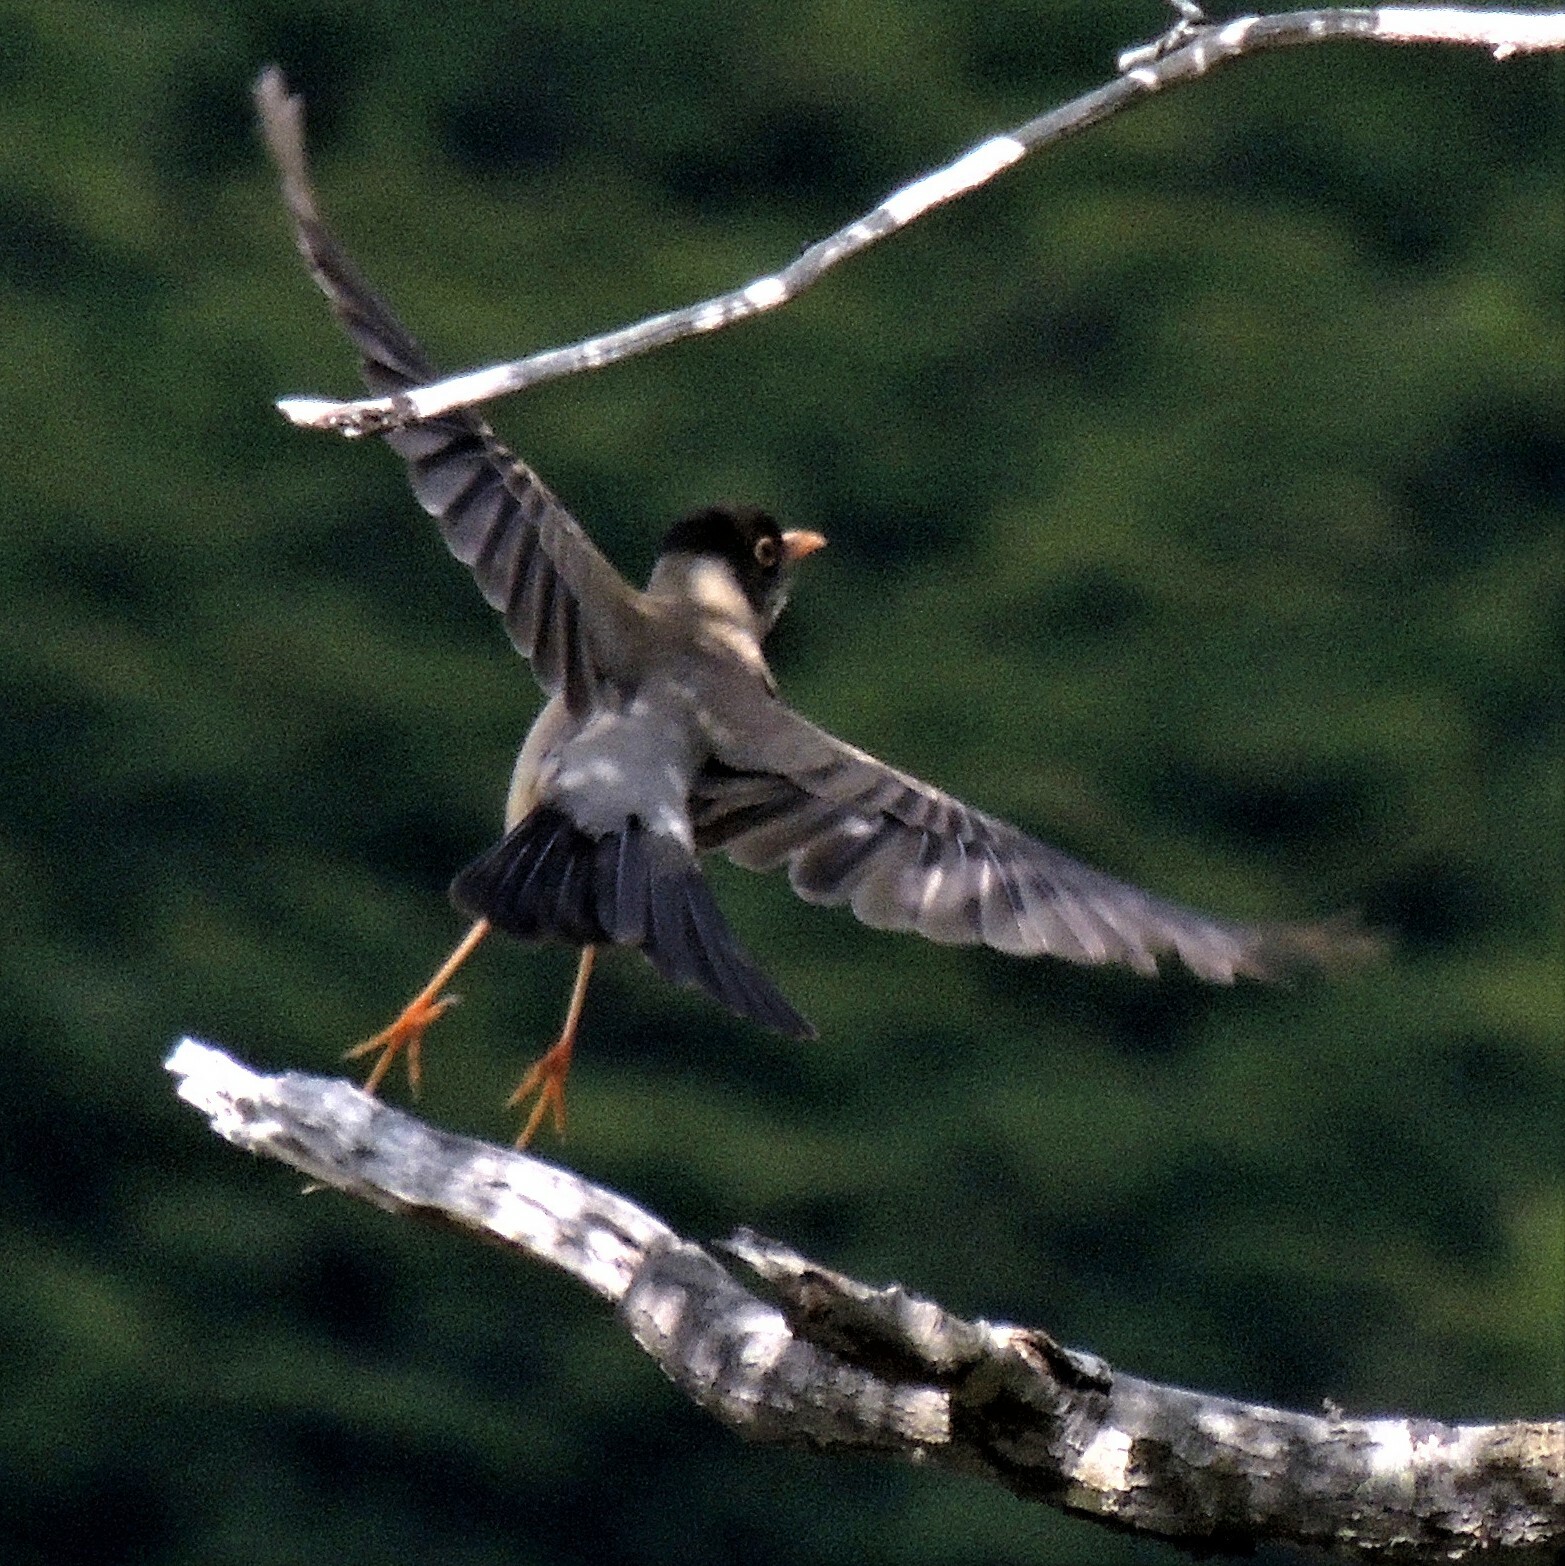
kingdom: Animalia
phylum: Chordata
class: Aves
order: Passeriformes
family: Turdidae
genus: Turdus
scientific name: Turdus falcklandii
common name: Austral thrush
